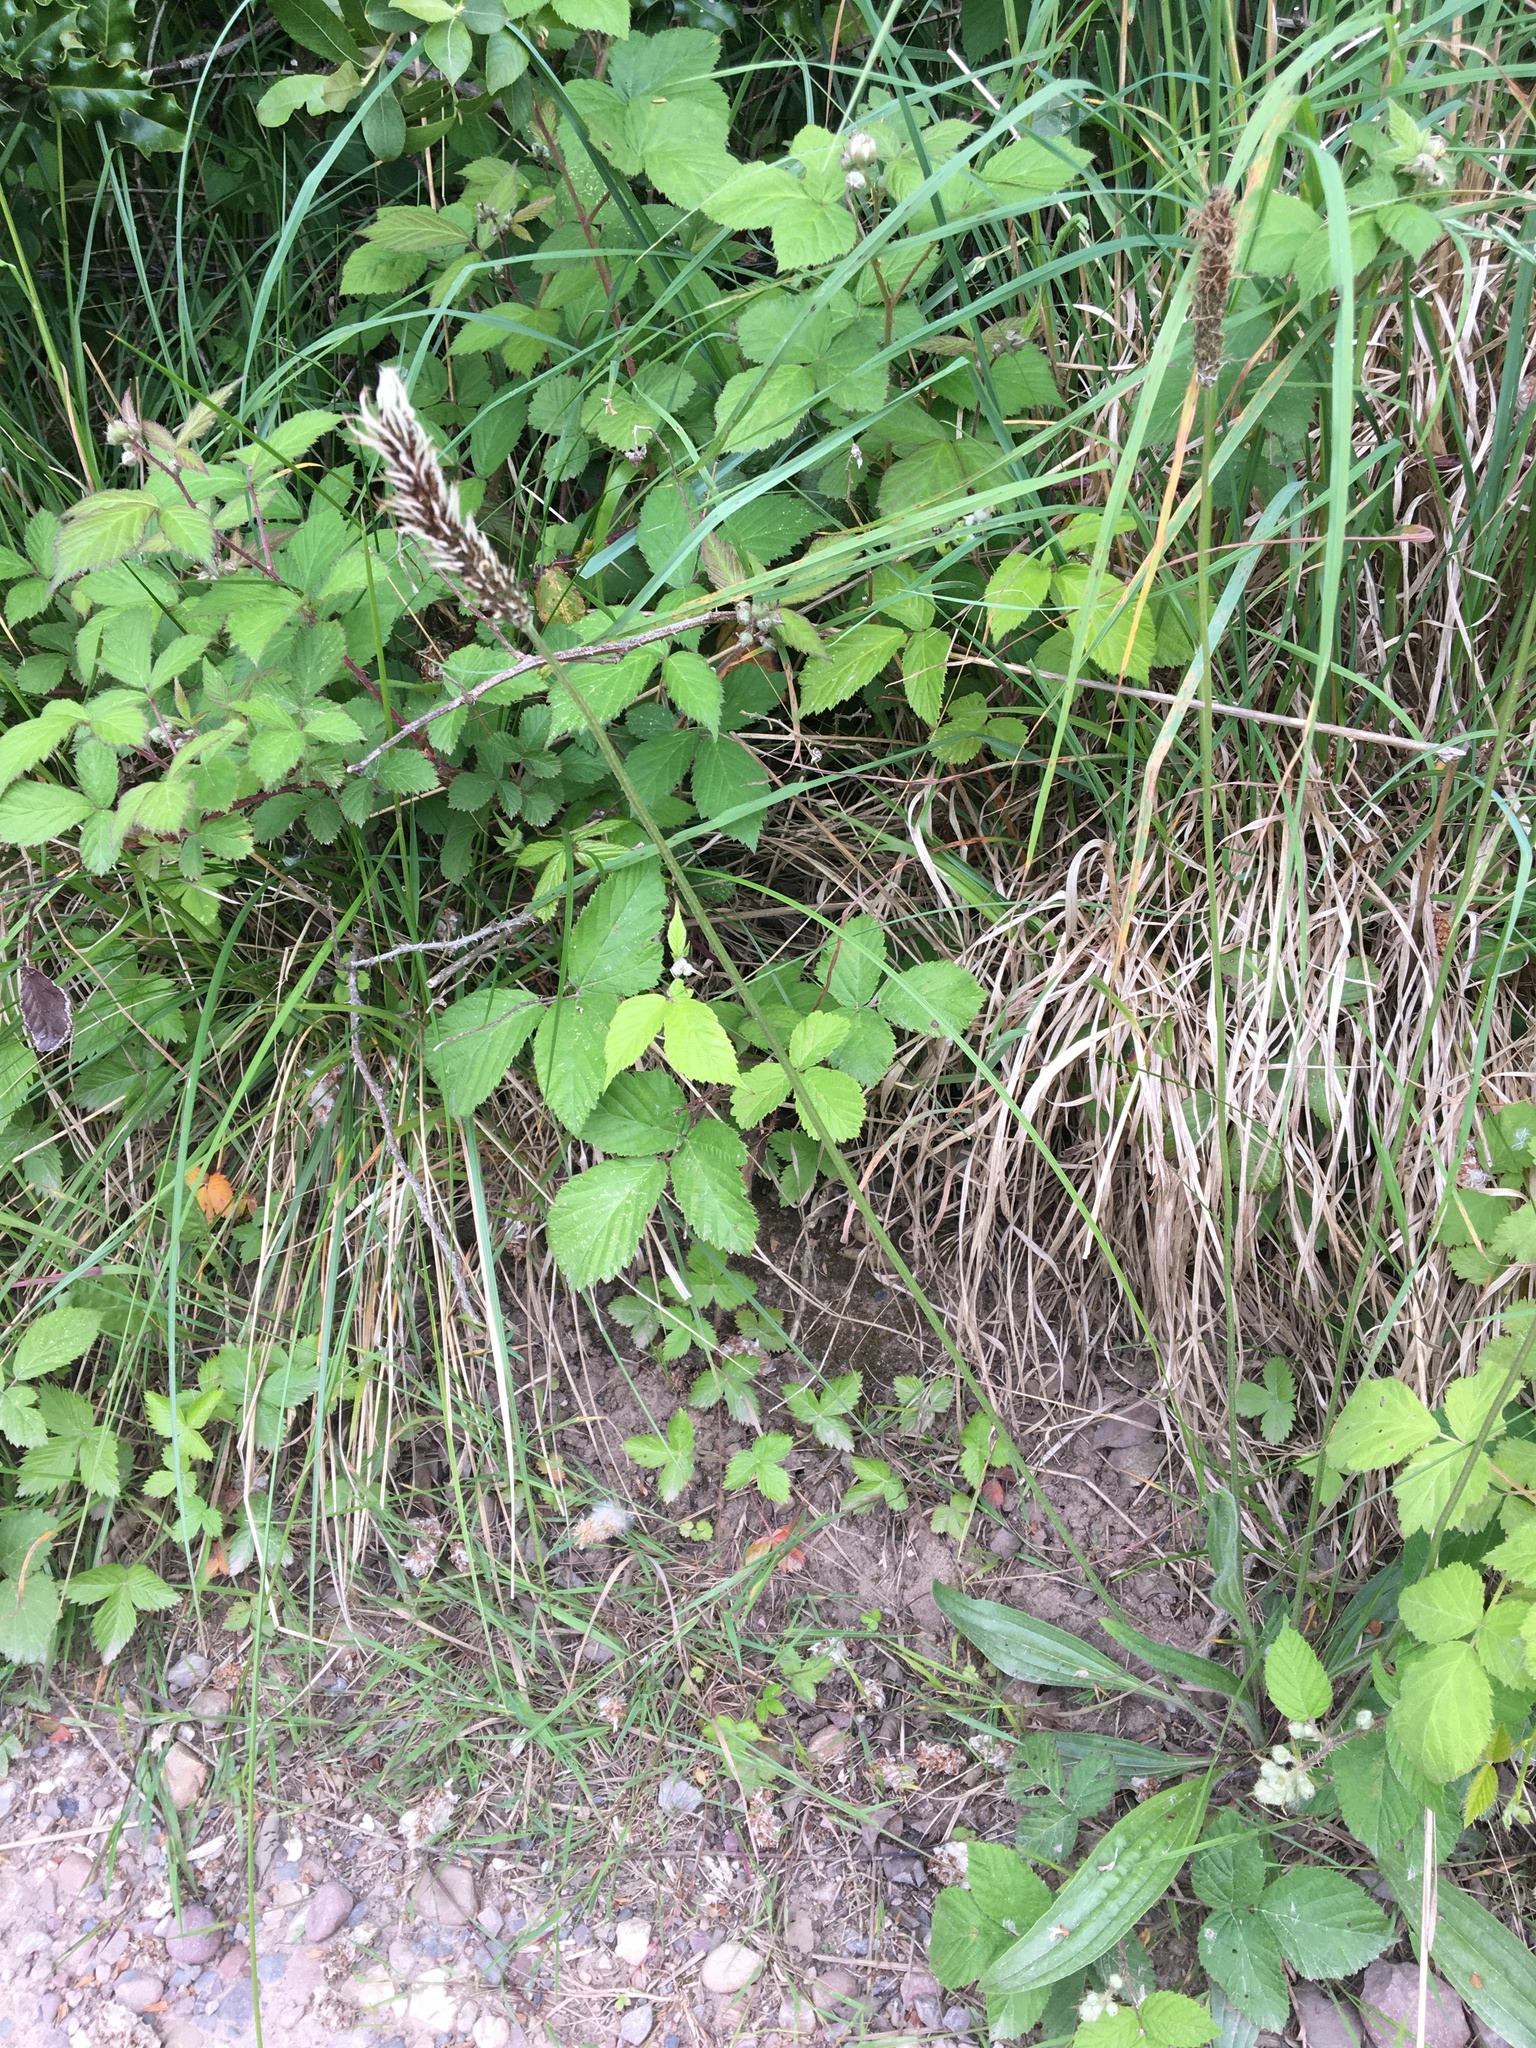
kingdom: Plantae
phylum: Tracheophyta
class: Magnoliopsida
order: Lamiales
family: Plantaginaceae
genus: Plantago
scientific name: Plantago lanceolata
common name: Ribwort plantain
